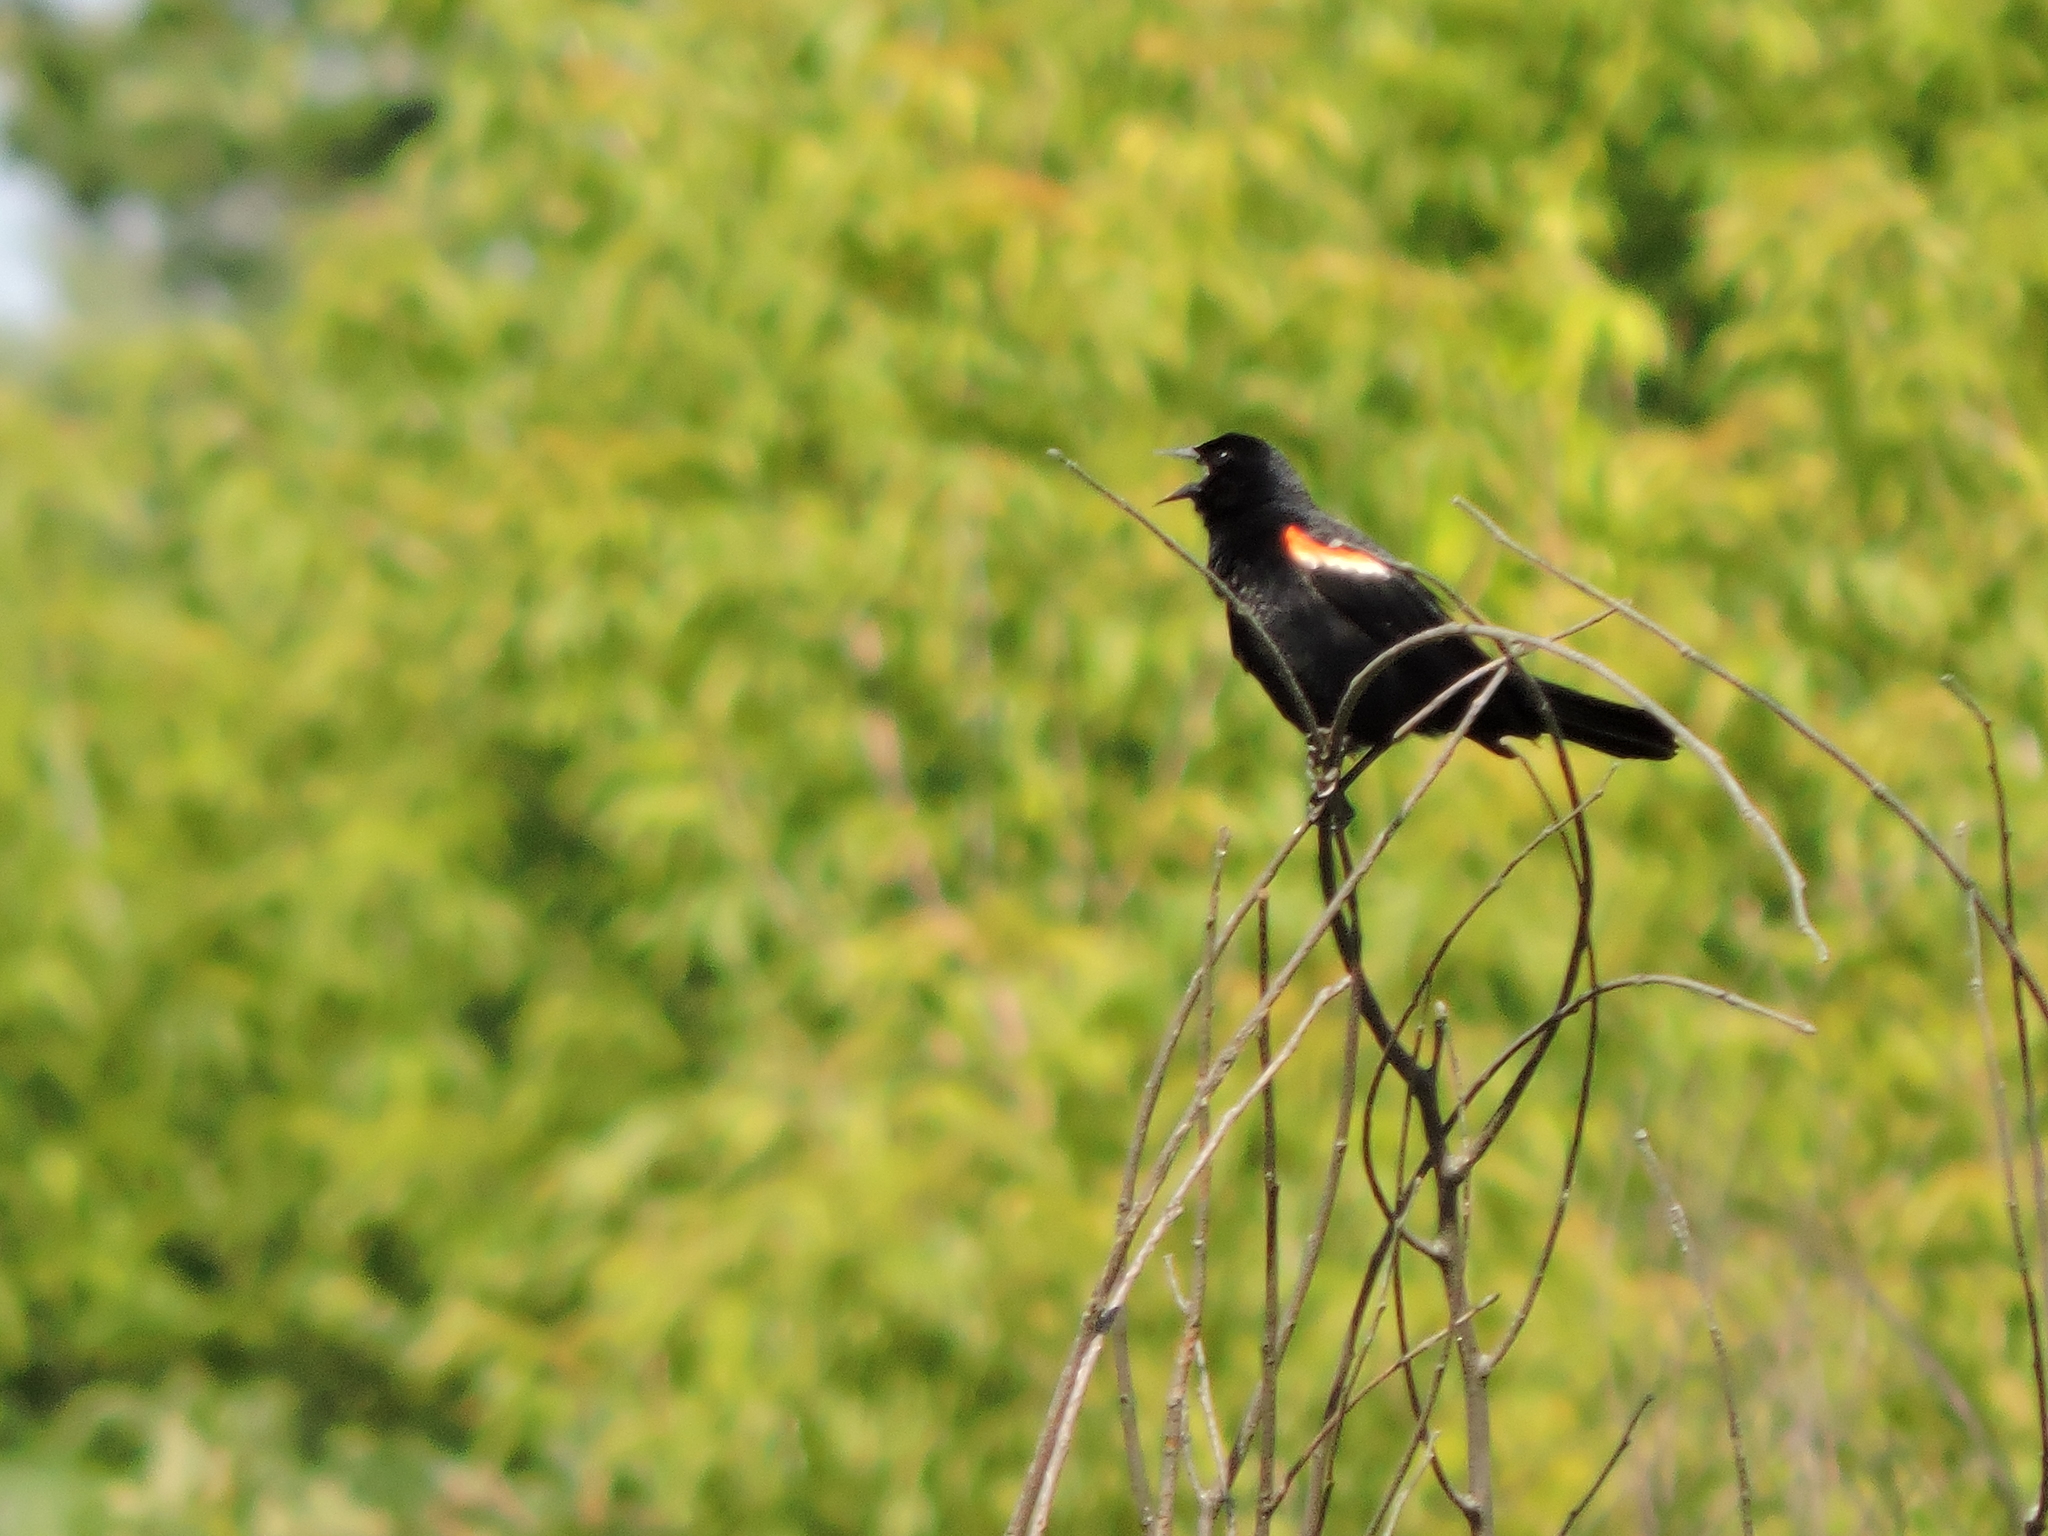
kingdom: Animalia
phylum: Chordata
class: Aves
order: Passeriformes
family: Icteridae
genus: Agelaius
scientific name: Agelaius phoeniceus
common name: Red-winged blackbird
